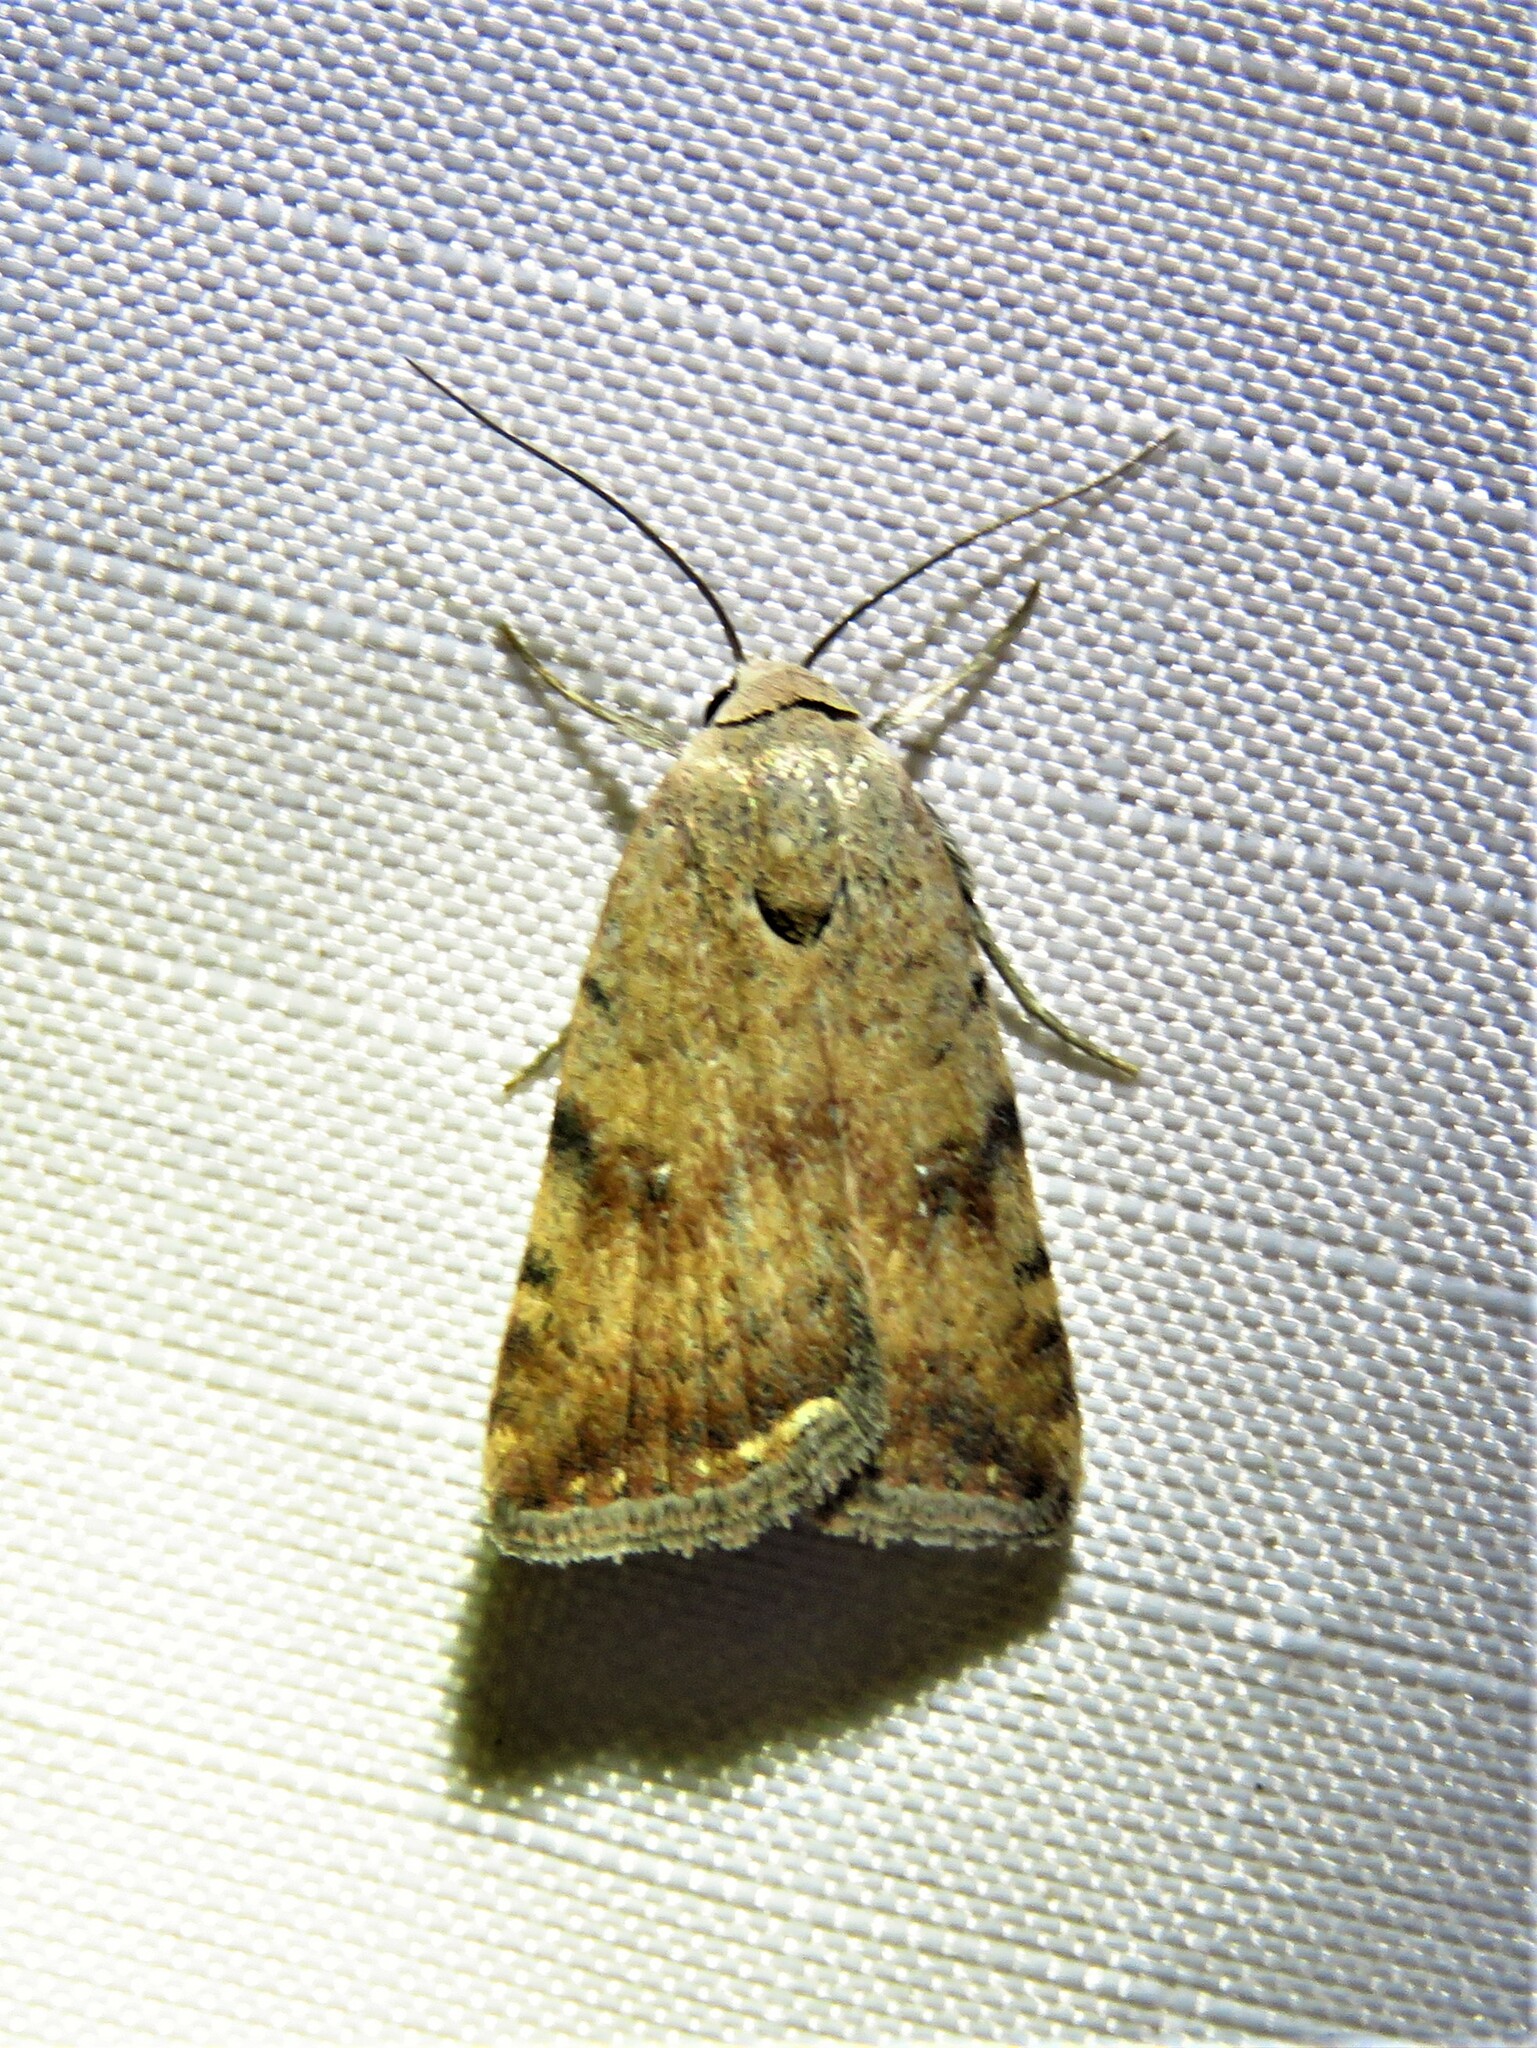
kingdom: Animalia
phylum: Arthropoda
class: Insecta
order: Lepidoptera
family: Noctuidae
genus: Micrathetis
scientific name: Micrathetis triplex
